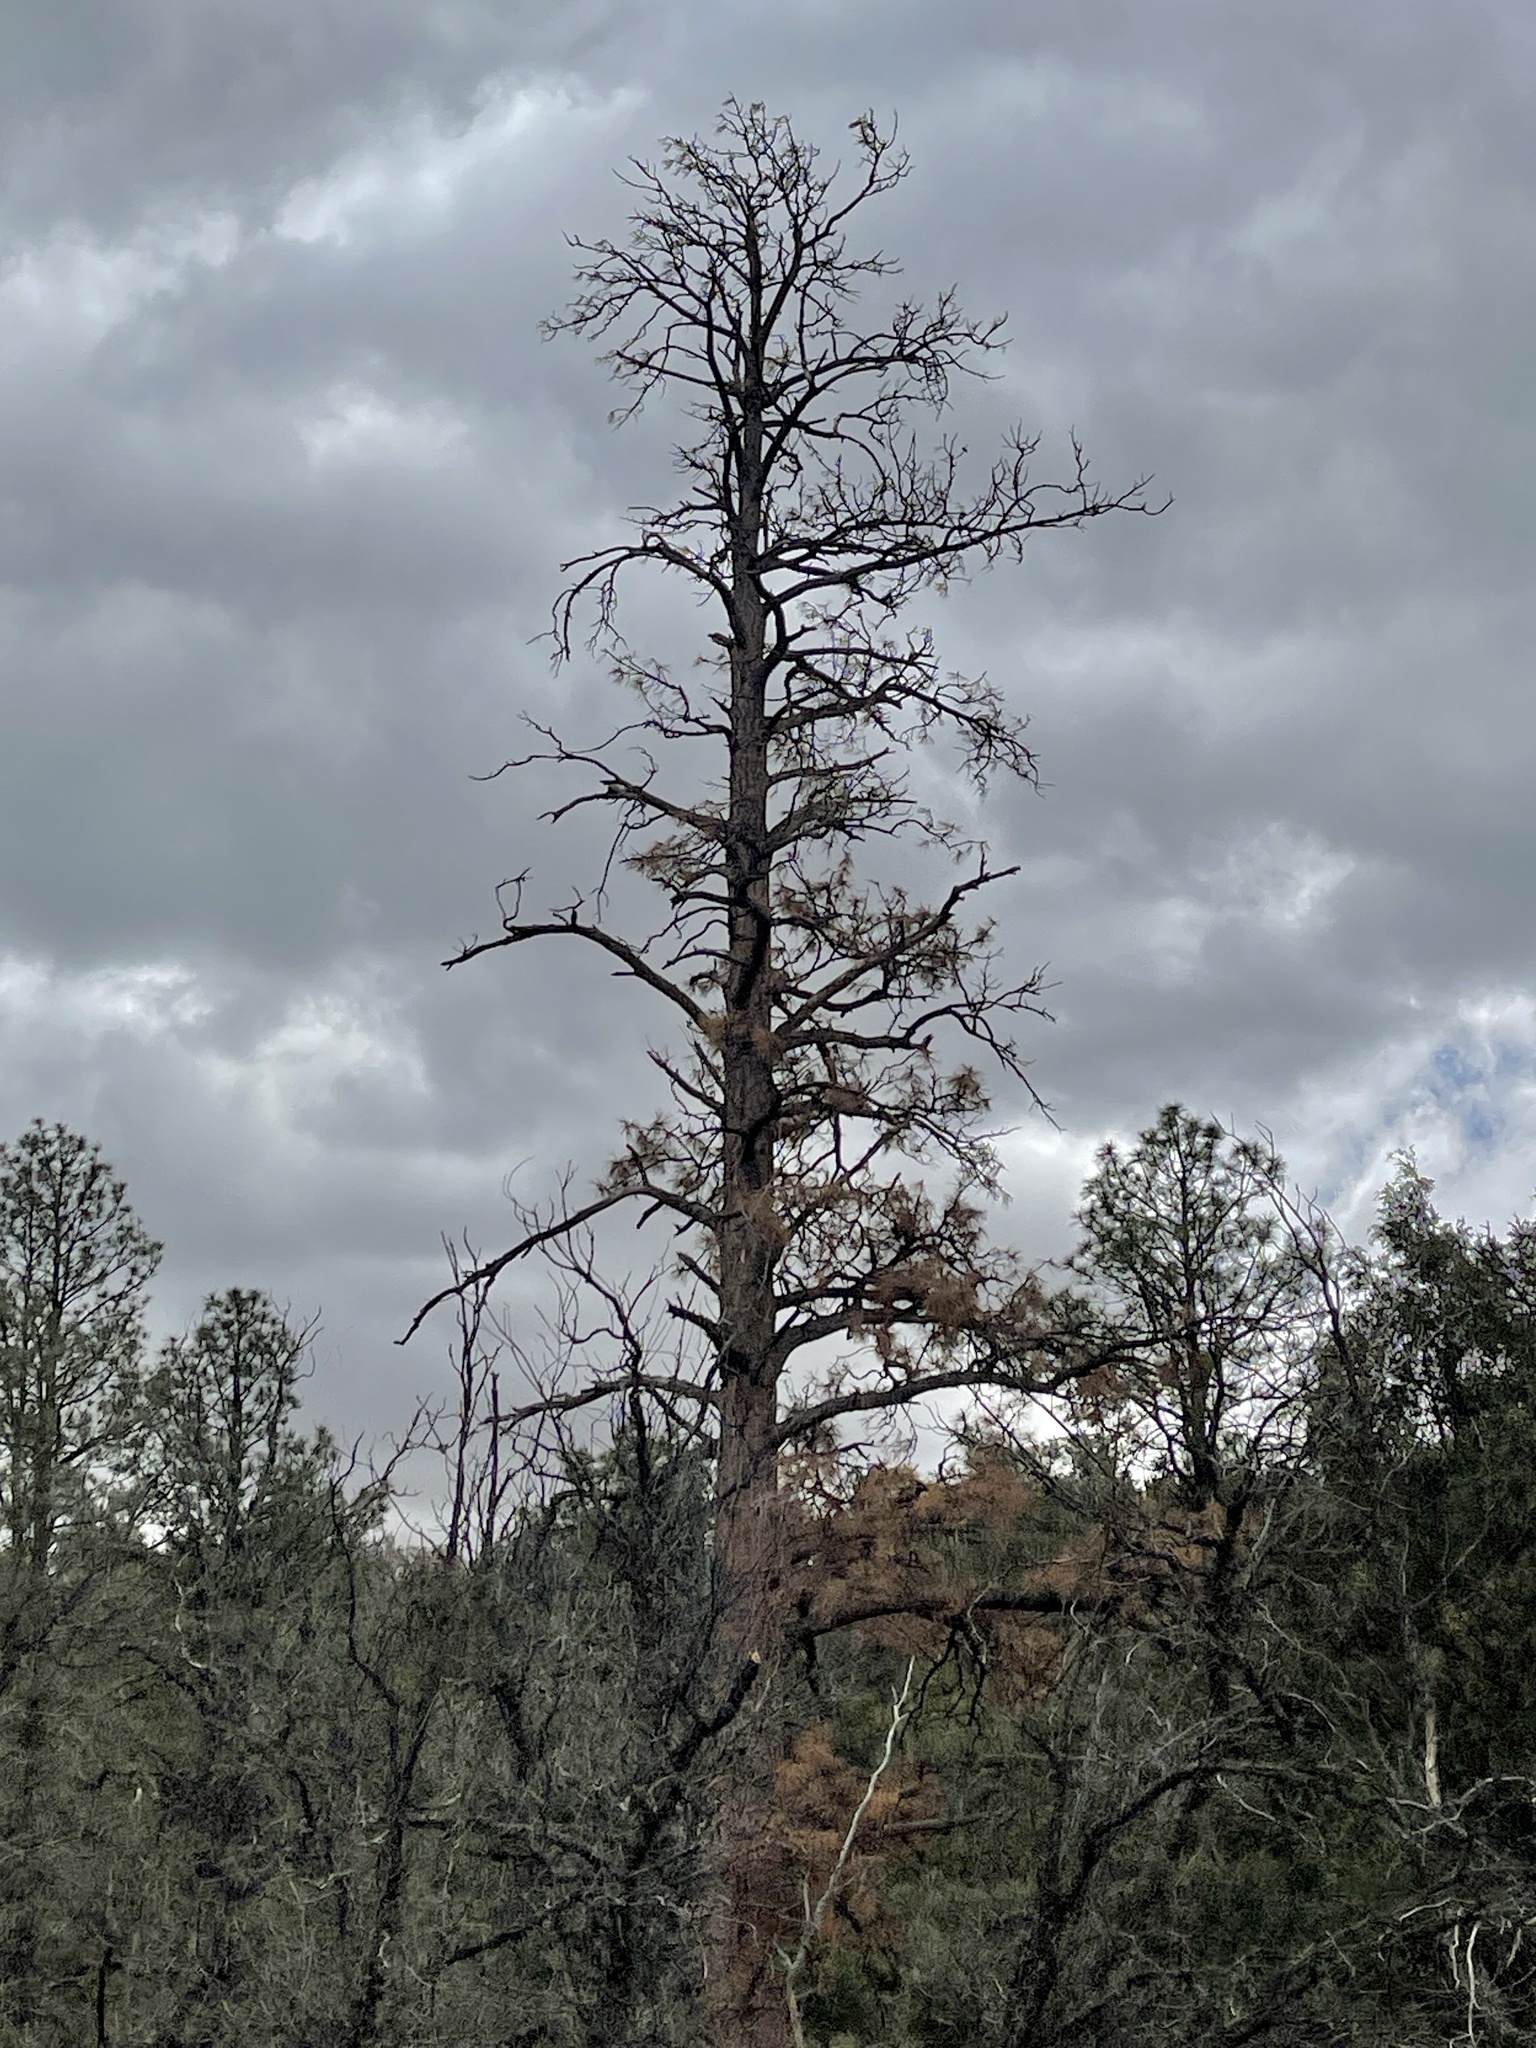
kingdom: Plantae
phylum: Tracheophyta
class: Pinopsida
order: Pinales
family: Pinaceae
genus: Pinus
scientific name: Pinus ponderosa
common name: Western yellow-pine
